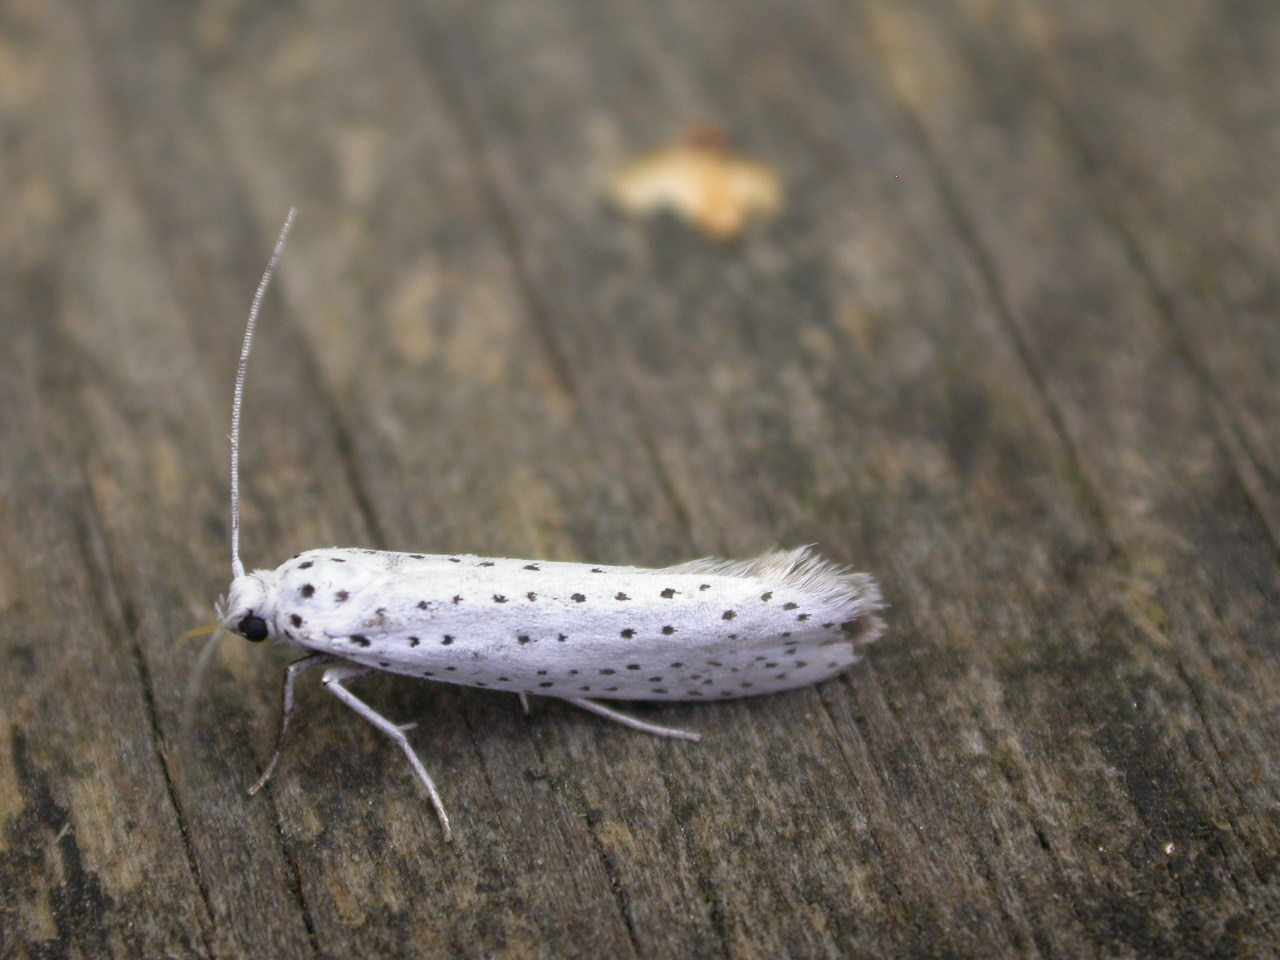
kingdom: Animalia
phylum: Arthropoda
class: Insecta
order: Lepidoptera
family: Yponomeutidae
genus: Yponomeuta
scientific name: Yponomeuta evonymella
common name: Bird-cherry ermine
